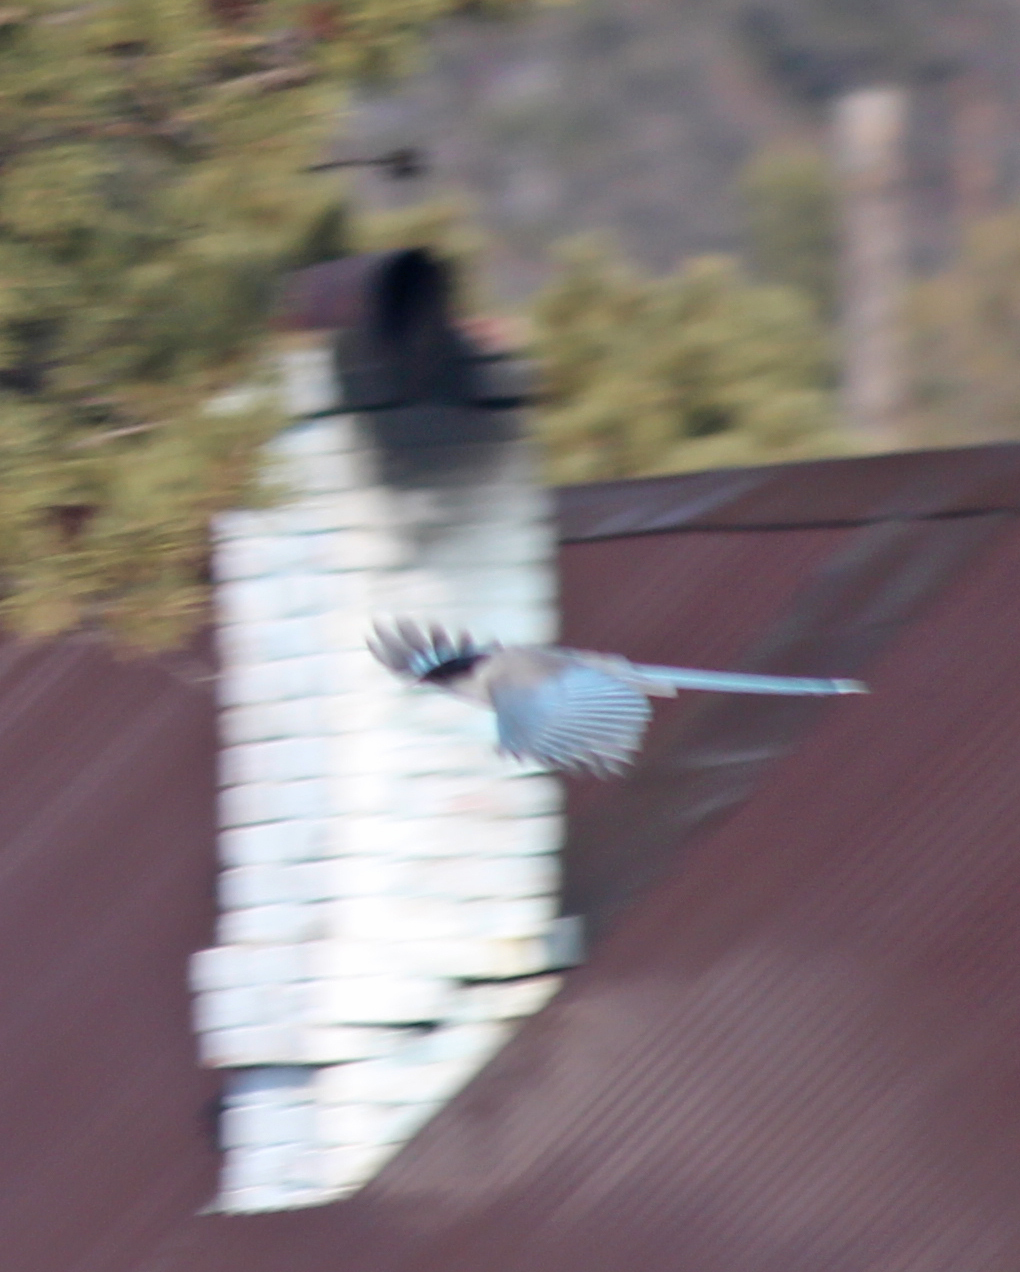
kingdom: Animalia
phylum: Chordata
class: Aves
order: Passeriformes
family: Corvidae
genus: Cyanopica
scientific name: Cyanopica cyanus
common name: Azure-winged magpie
